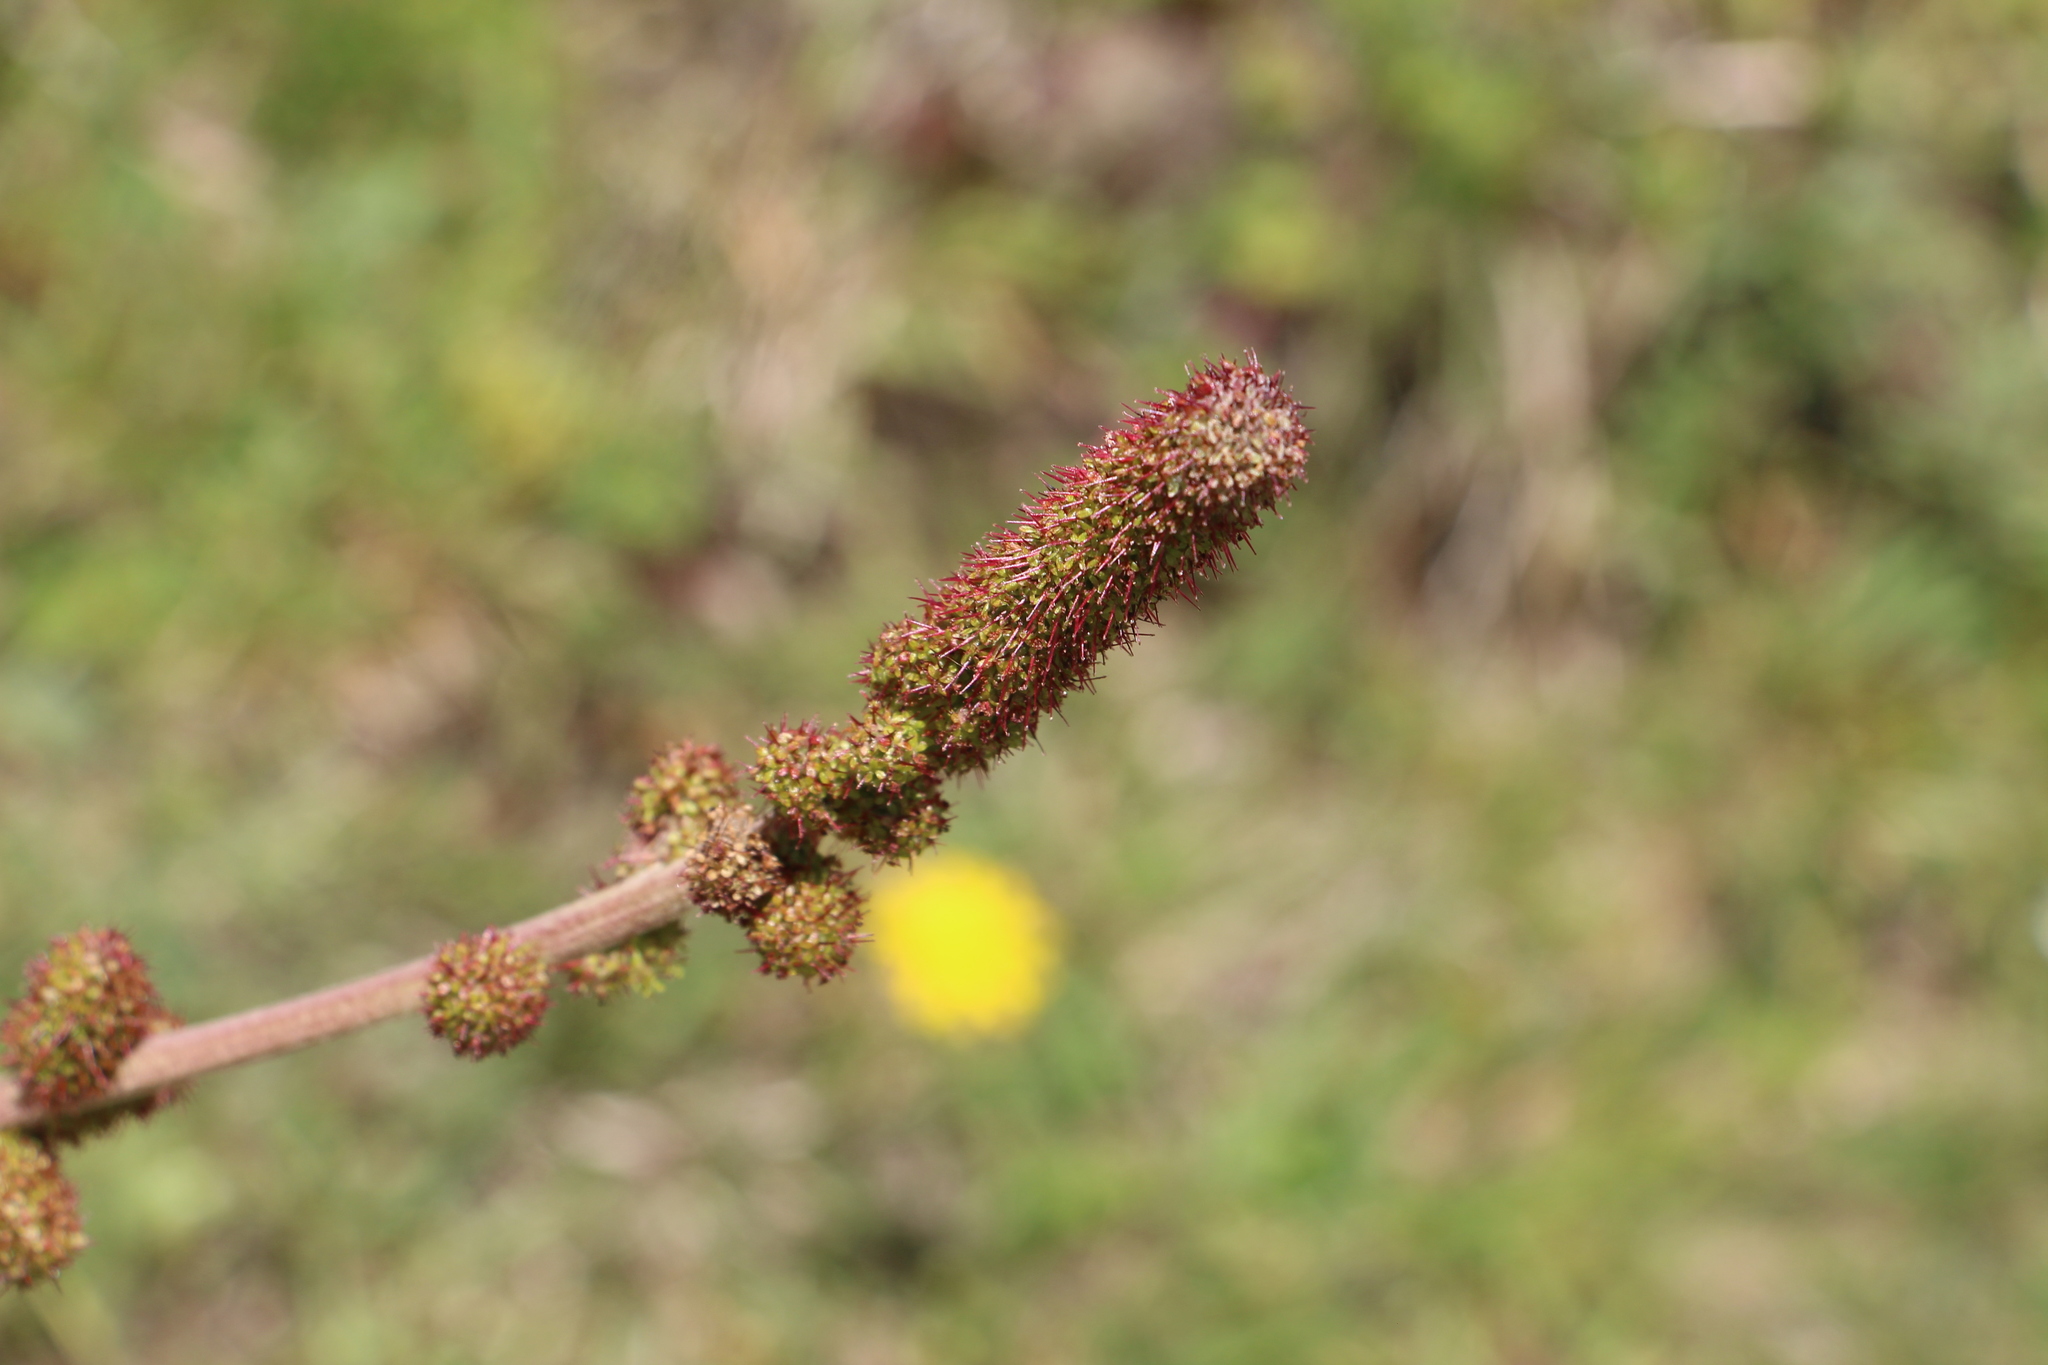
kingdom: Plantae
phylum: Tracheophyta
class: Magnoliopsida
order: Rosales
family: Rosaceae
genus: Acaena
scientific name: Acaena cylindristachya
